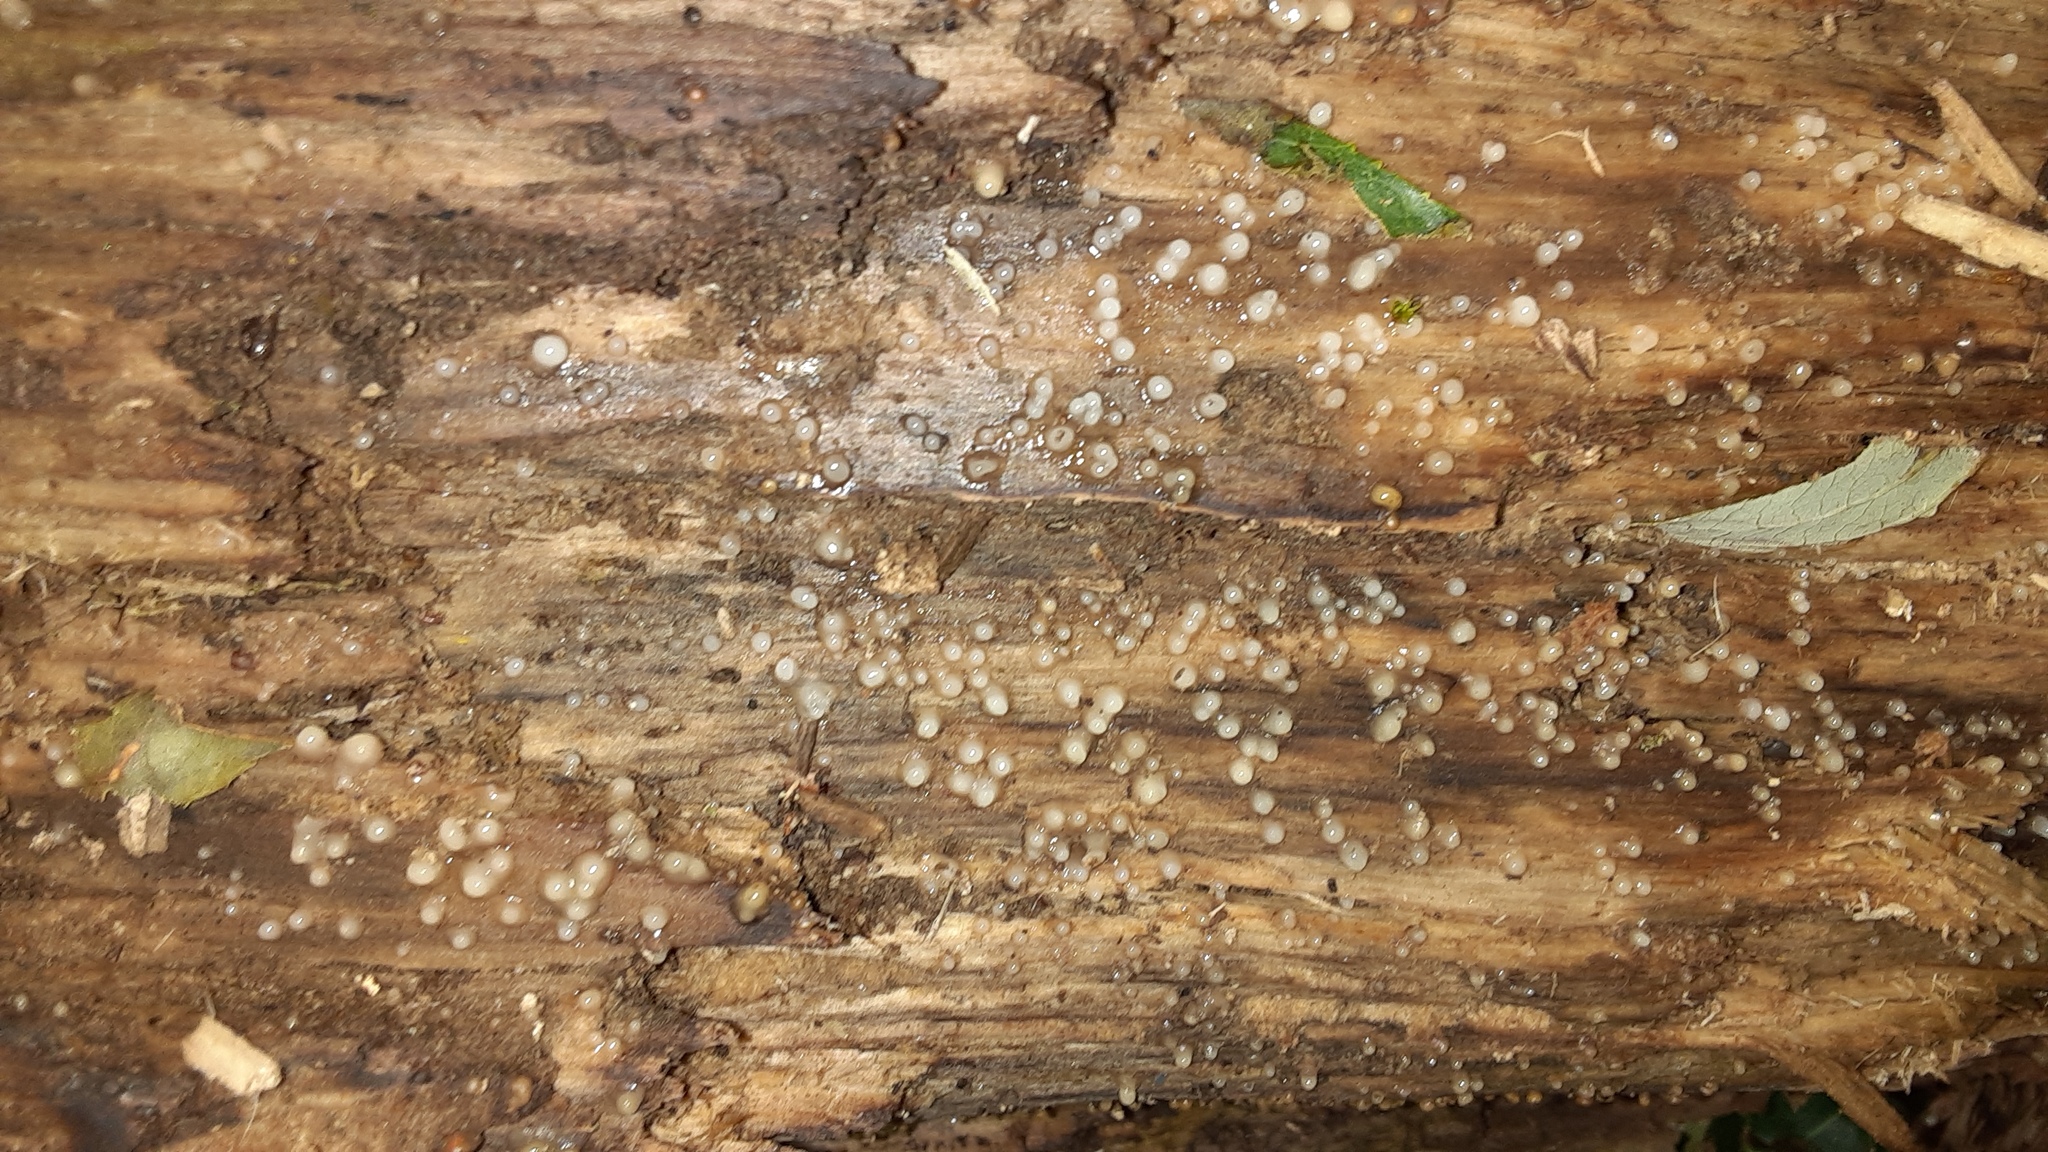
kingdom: Fungi
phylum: Basidiomycota
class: Atractiellomycetes
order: Atractiellales
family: Phleogenaceae
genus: Helicogloea
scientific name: Helicogloea compressa
